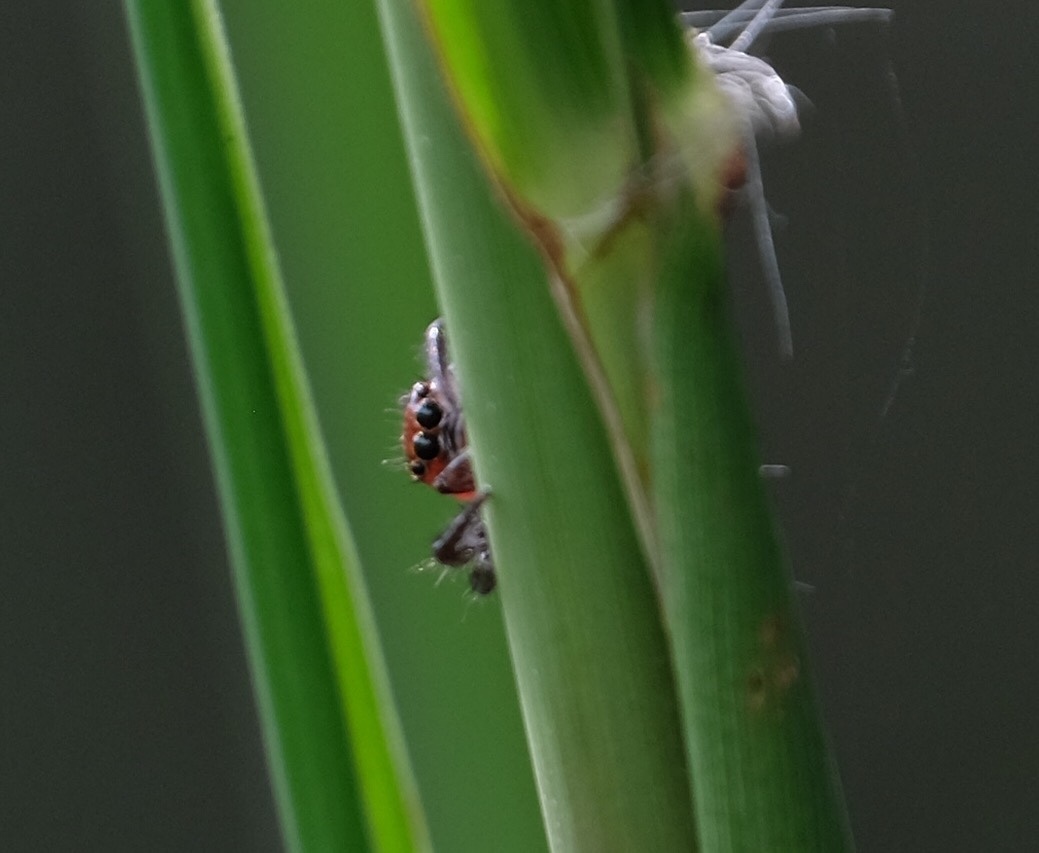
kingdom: Animalia
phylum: Arthropoda
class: Arachnida
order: Araneae
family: Salticidae
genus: Colonus
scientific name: Colonus sylvanus
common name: Jumping spiders
